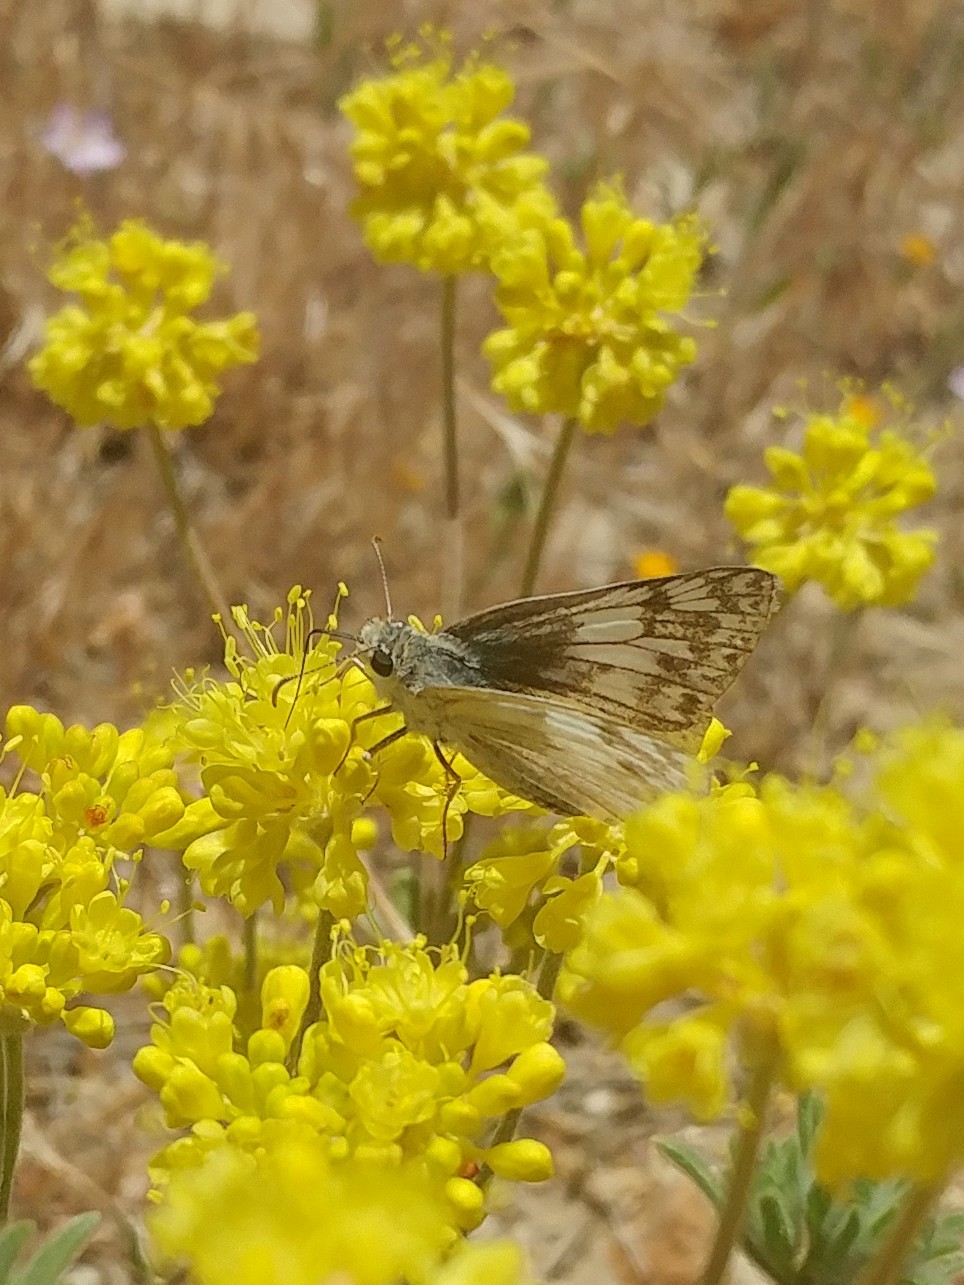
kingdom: Animalia
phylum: Arthropoda
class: Insecta
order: Lepidoptera
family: Hesperiidae
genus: Heliopetes
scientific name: Heliopetes ericetorum
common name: Northern white-skipper
